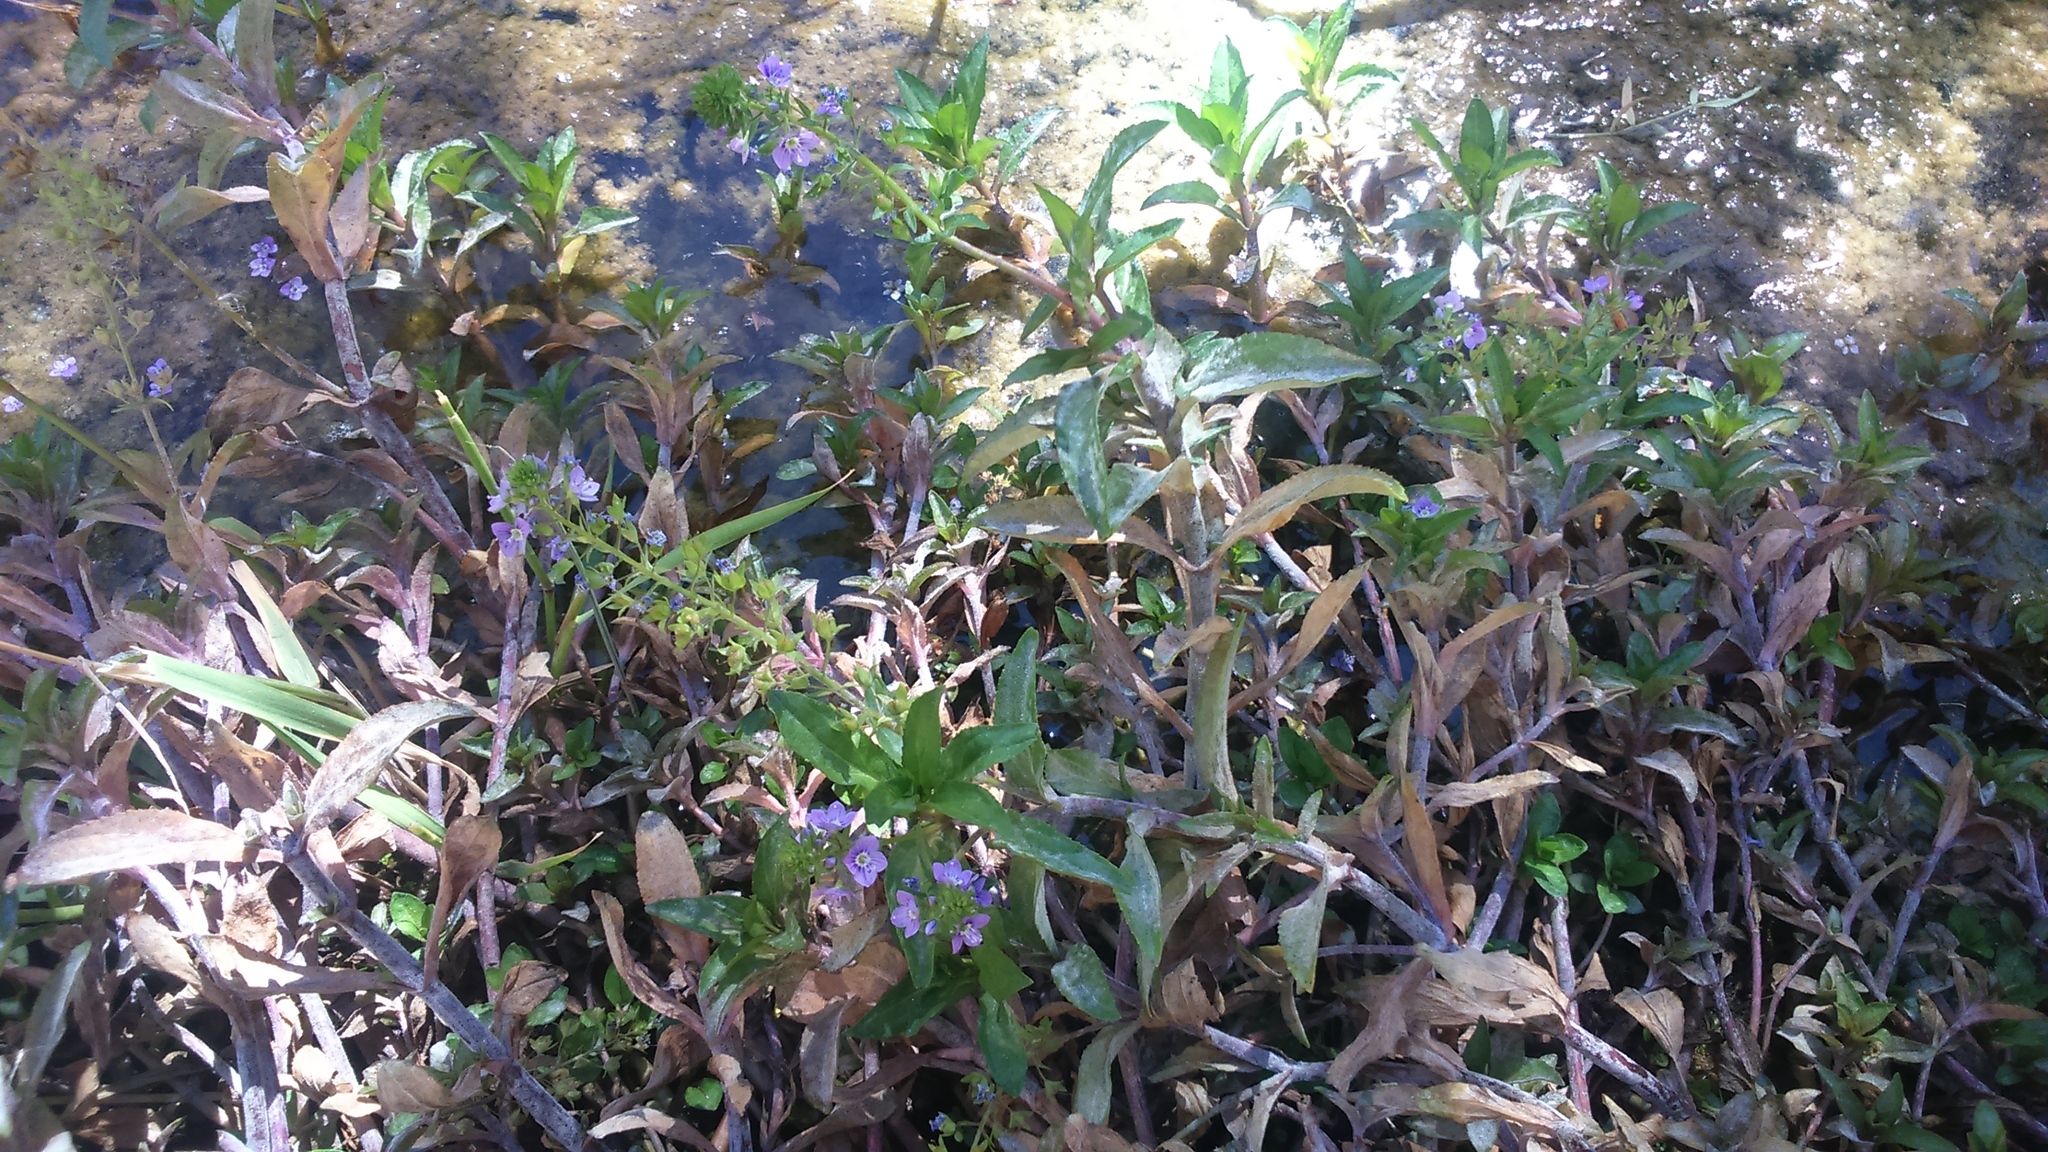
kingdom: Plantae
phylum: Tracheophyta
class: Magnoliopsida
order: Lamiales
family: Plantaginaceae
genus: Veronica
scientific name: Veronica anagallis-aquatica
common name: Water speedwell
